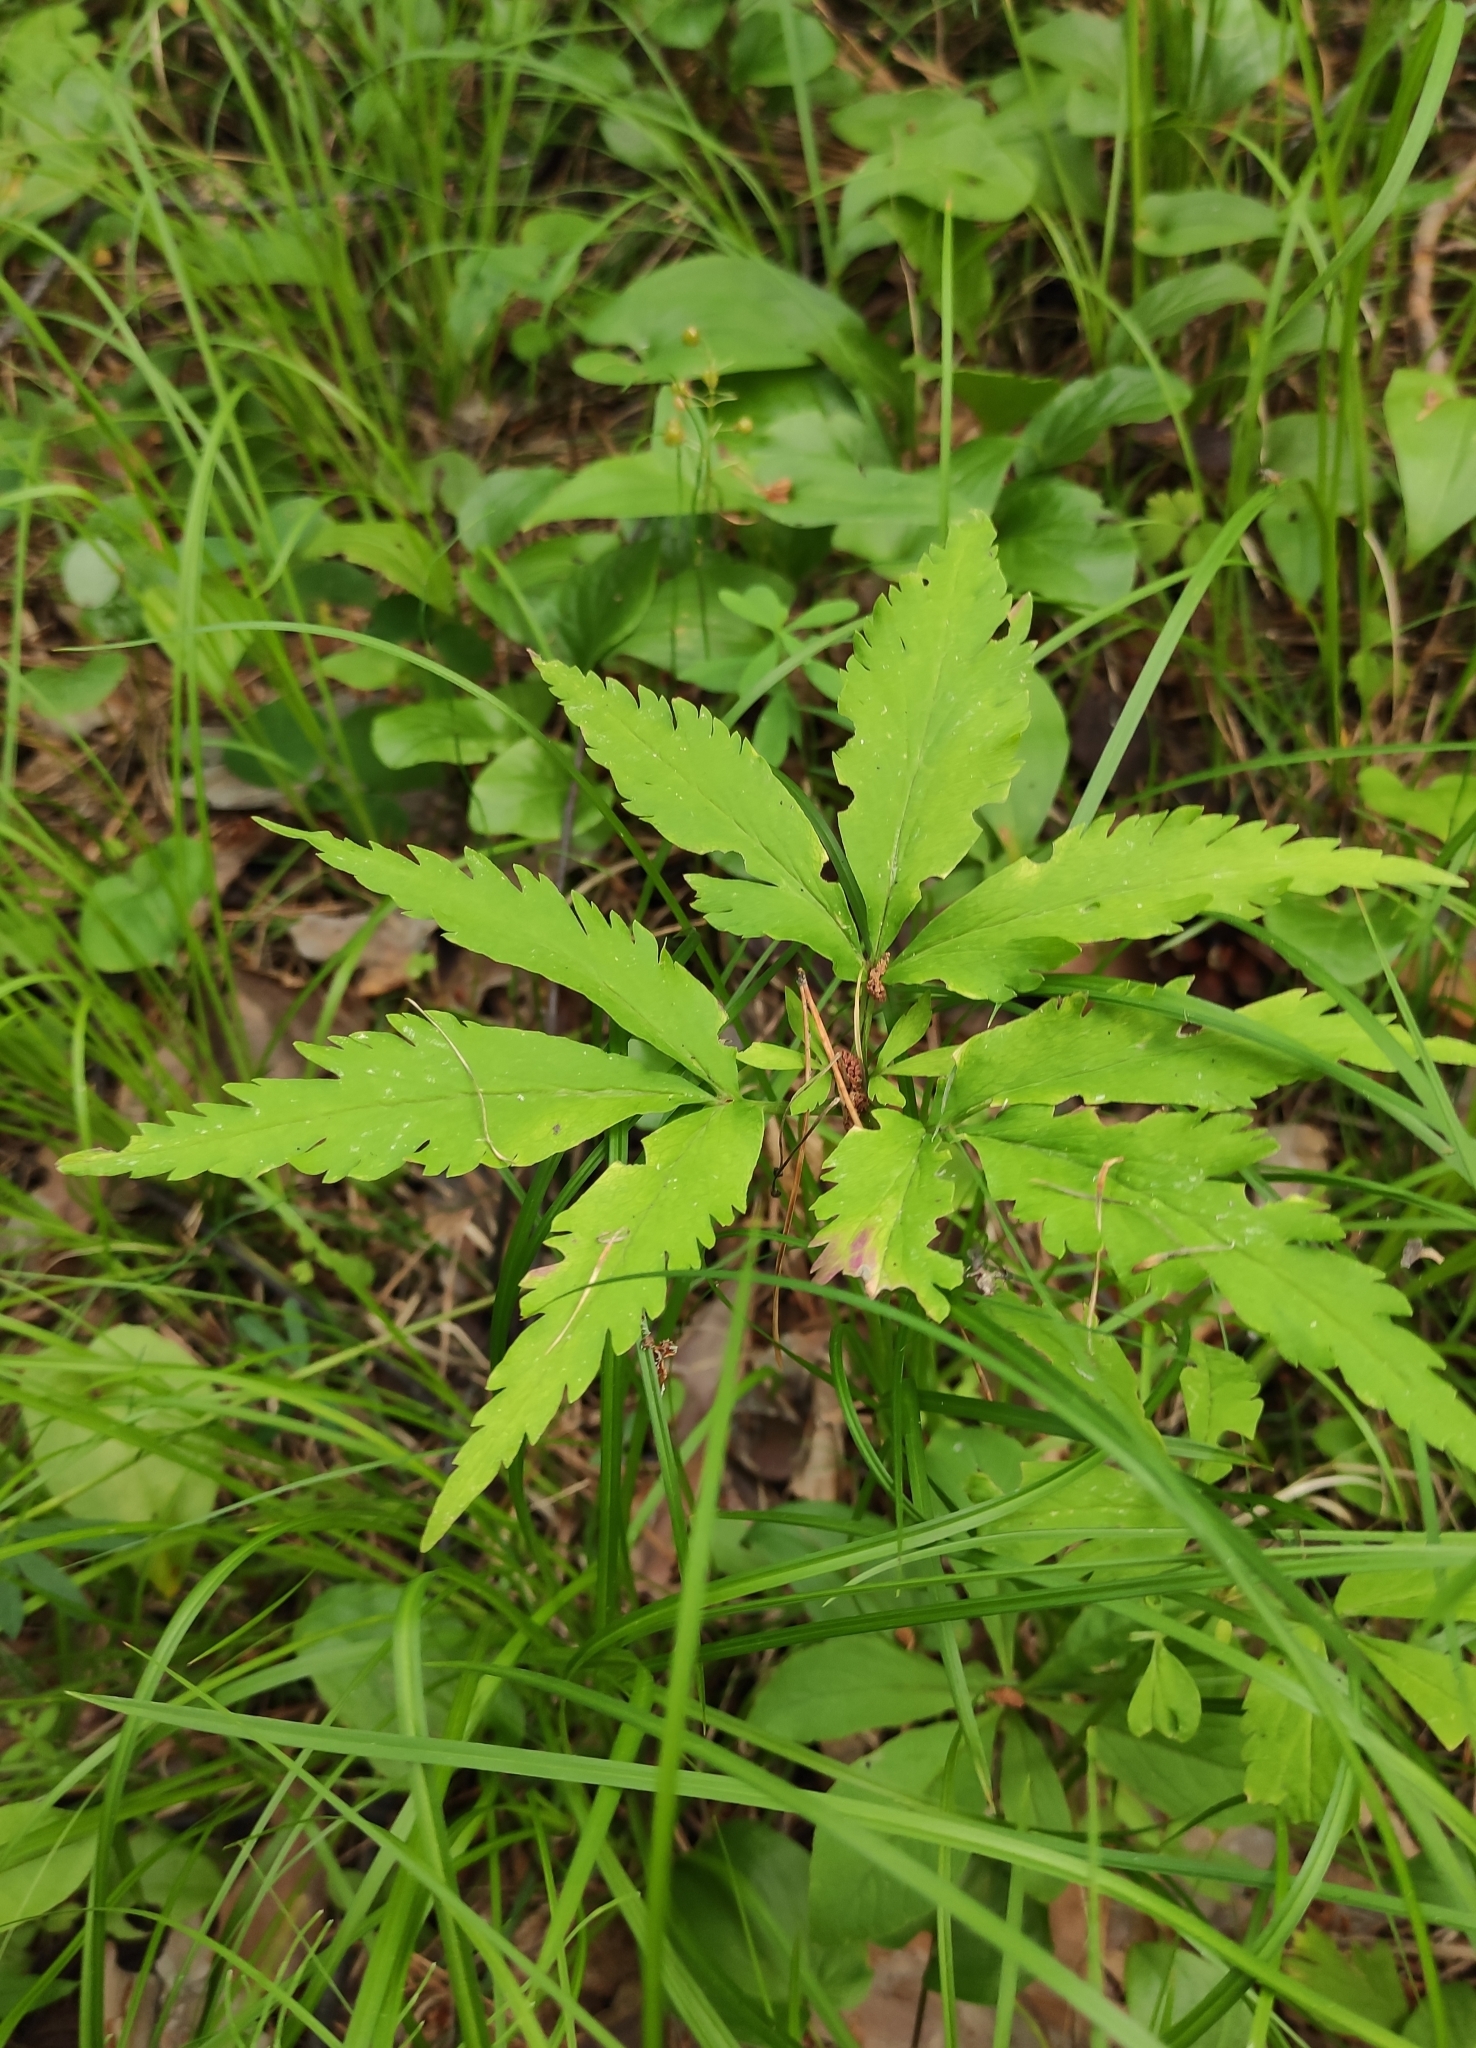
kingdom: Plantae
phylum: Tracheophyta
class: Magnoliopsida
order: Ranunculales
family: Ranunculaceae
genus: Anemone
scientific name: Anemone reflexa
